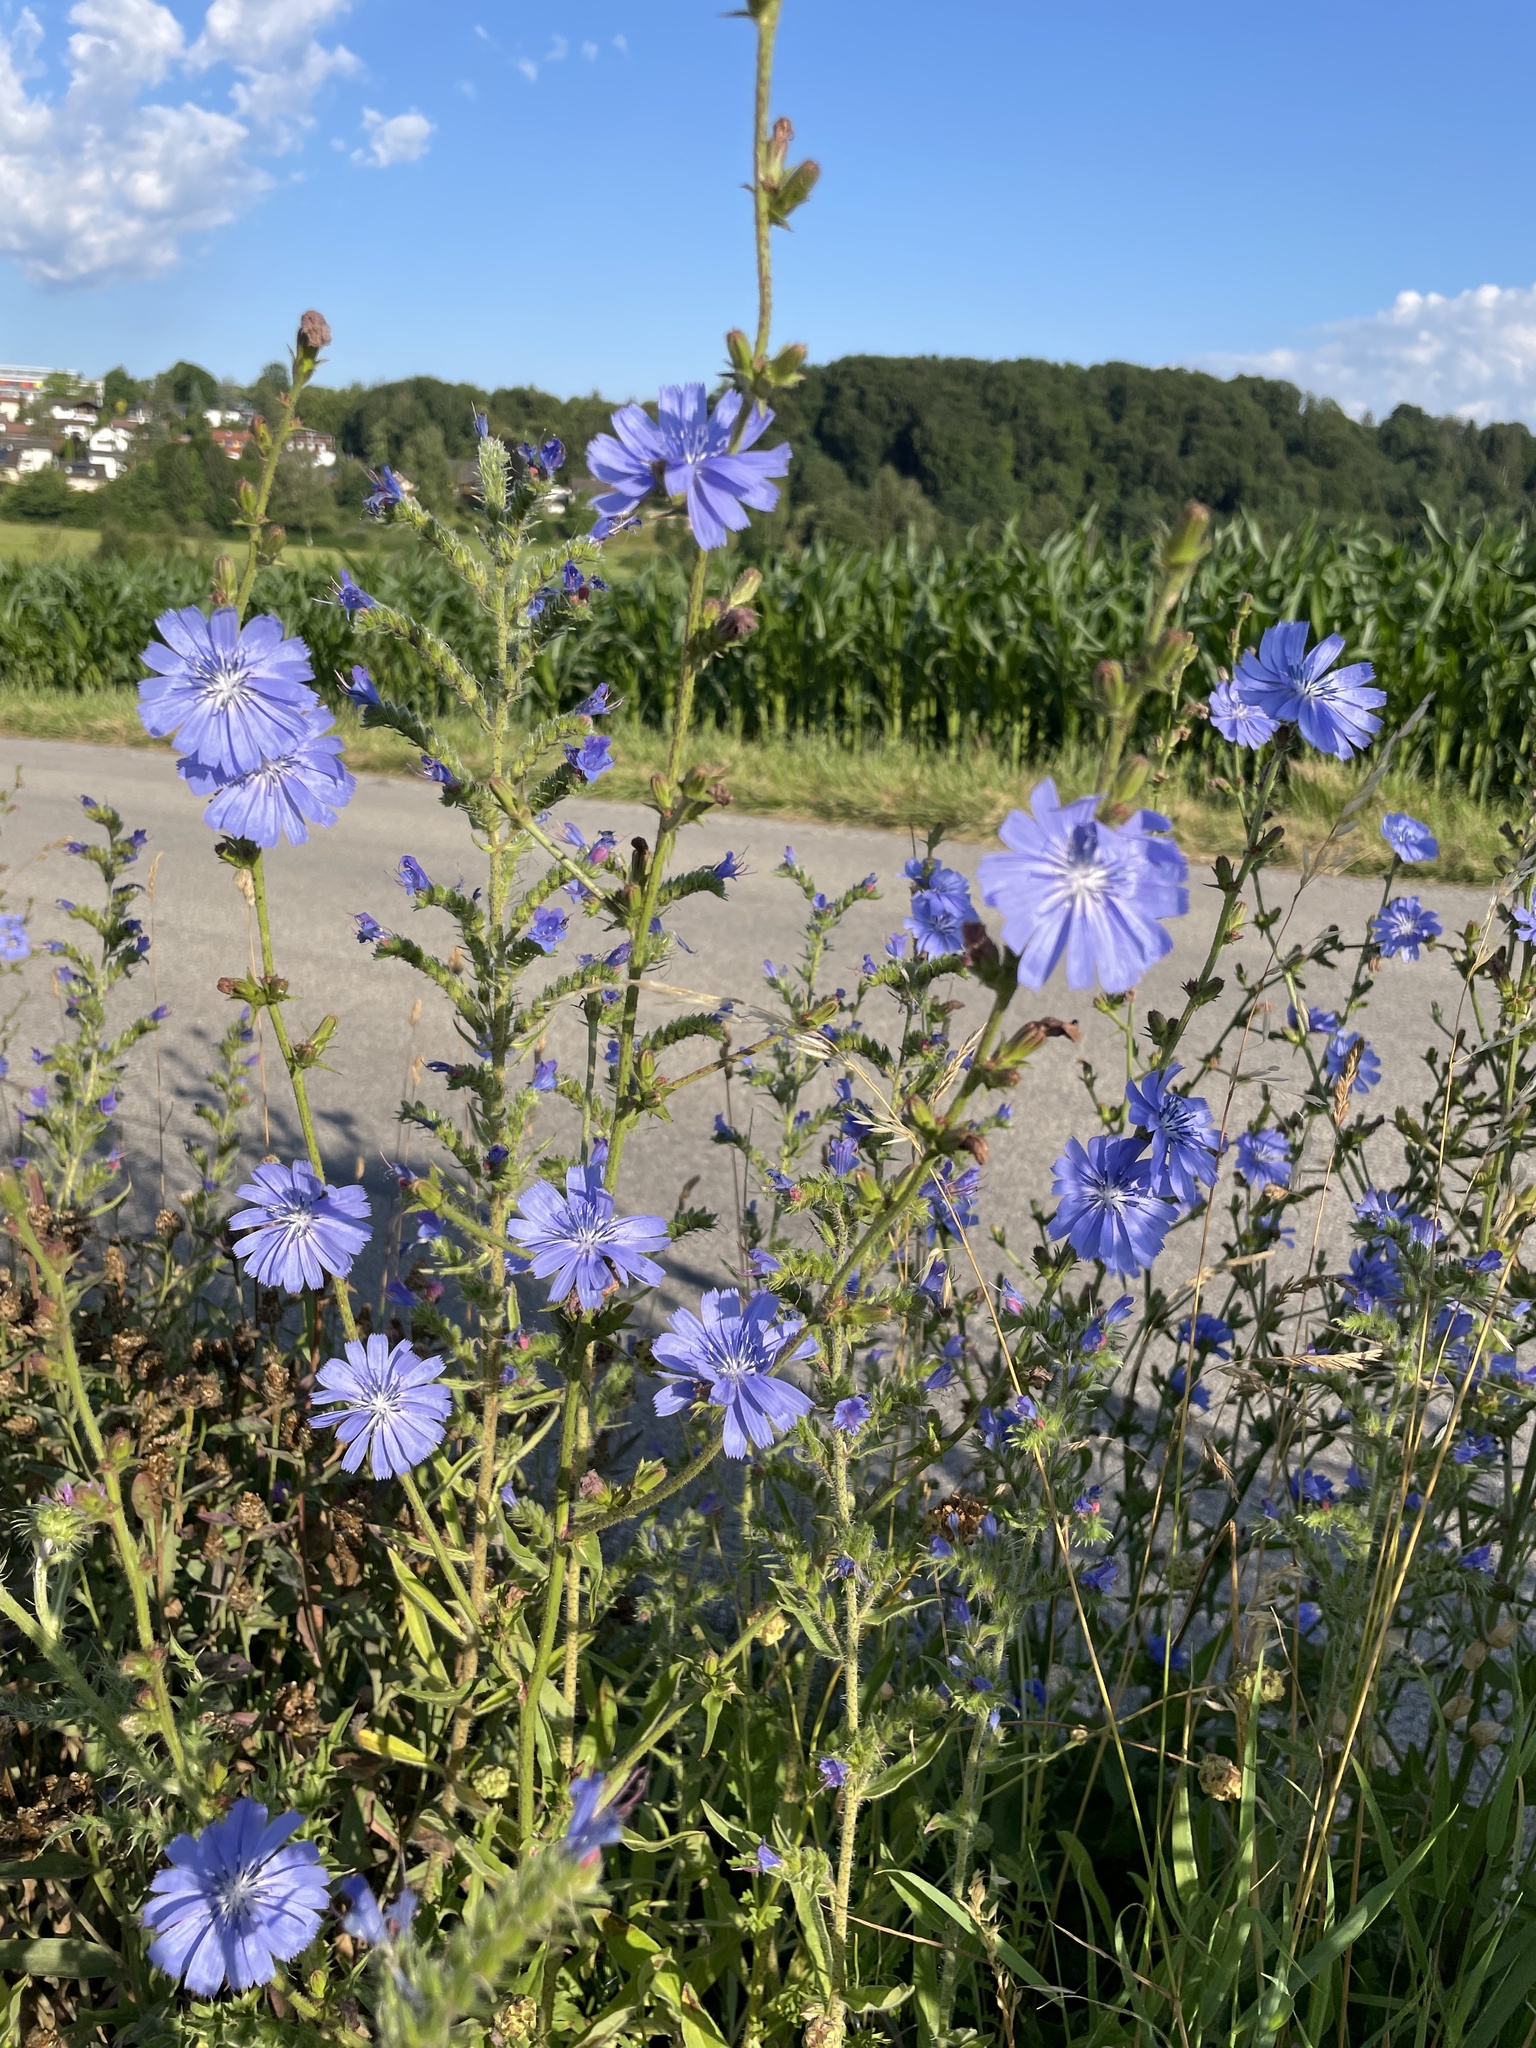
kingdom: Plantae
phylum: Tracheophyta
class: Magnoliopsida
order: Asterales
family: Asteraceae
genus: Cichorium
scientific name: Cichorium intybus
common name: Chicory
